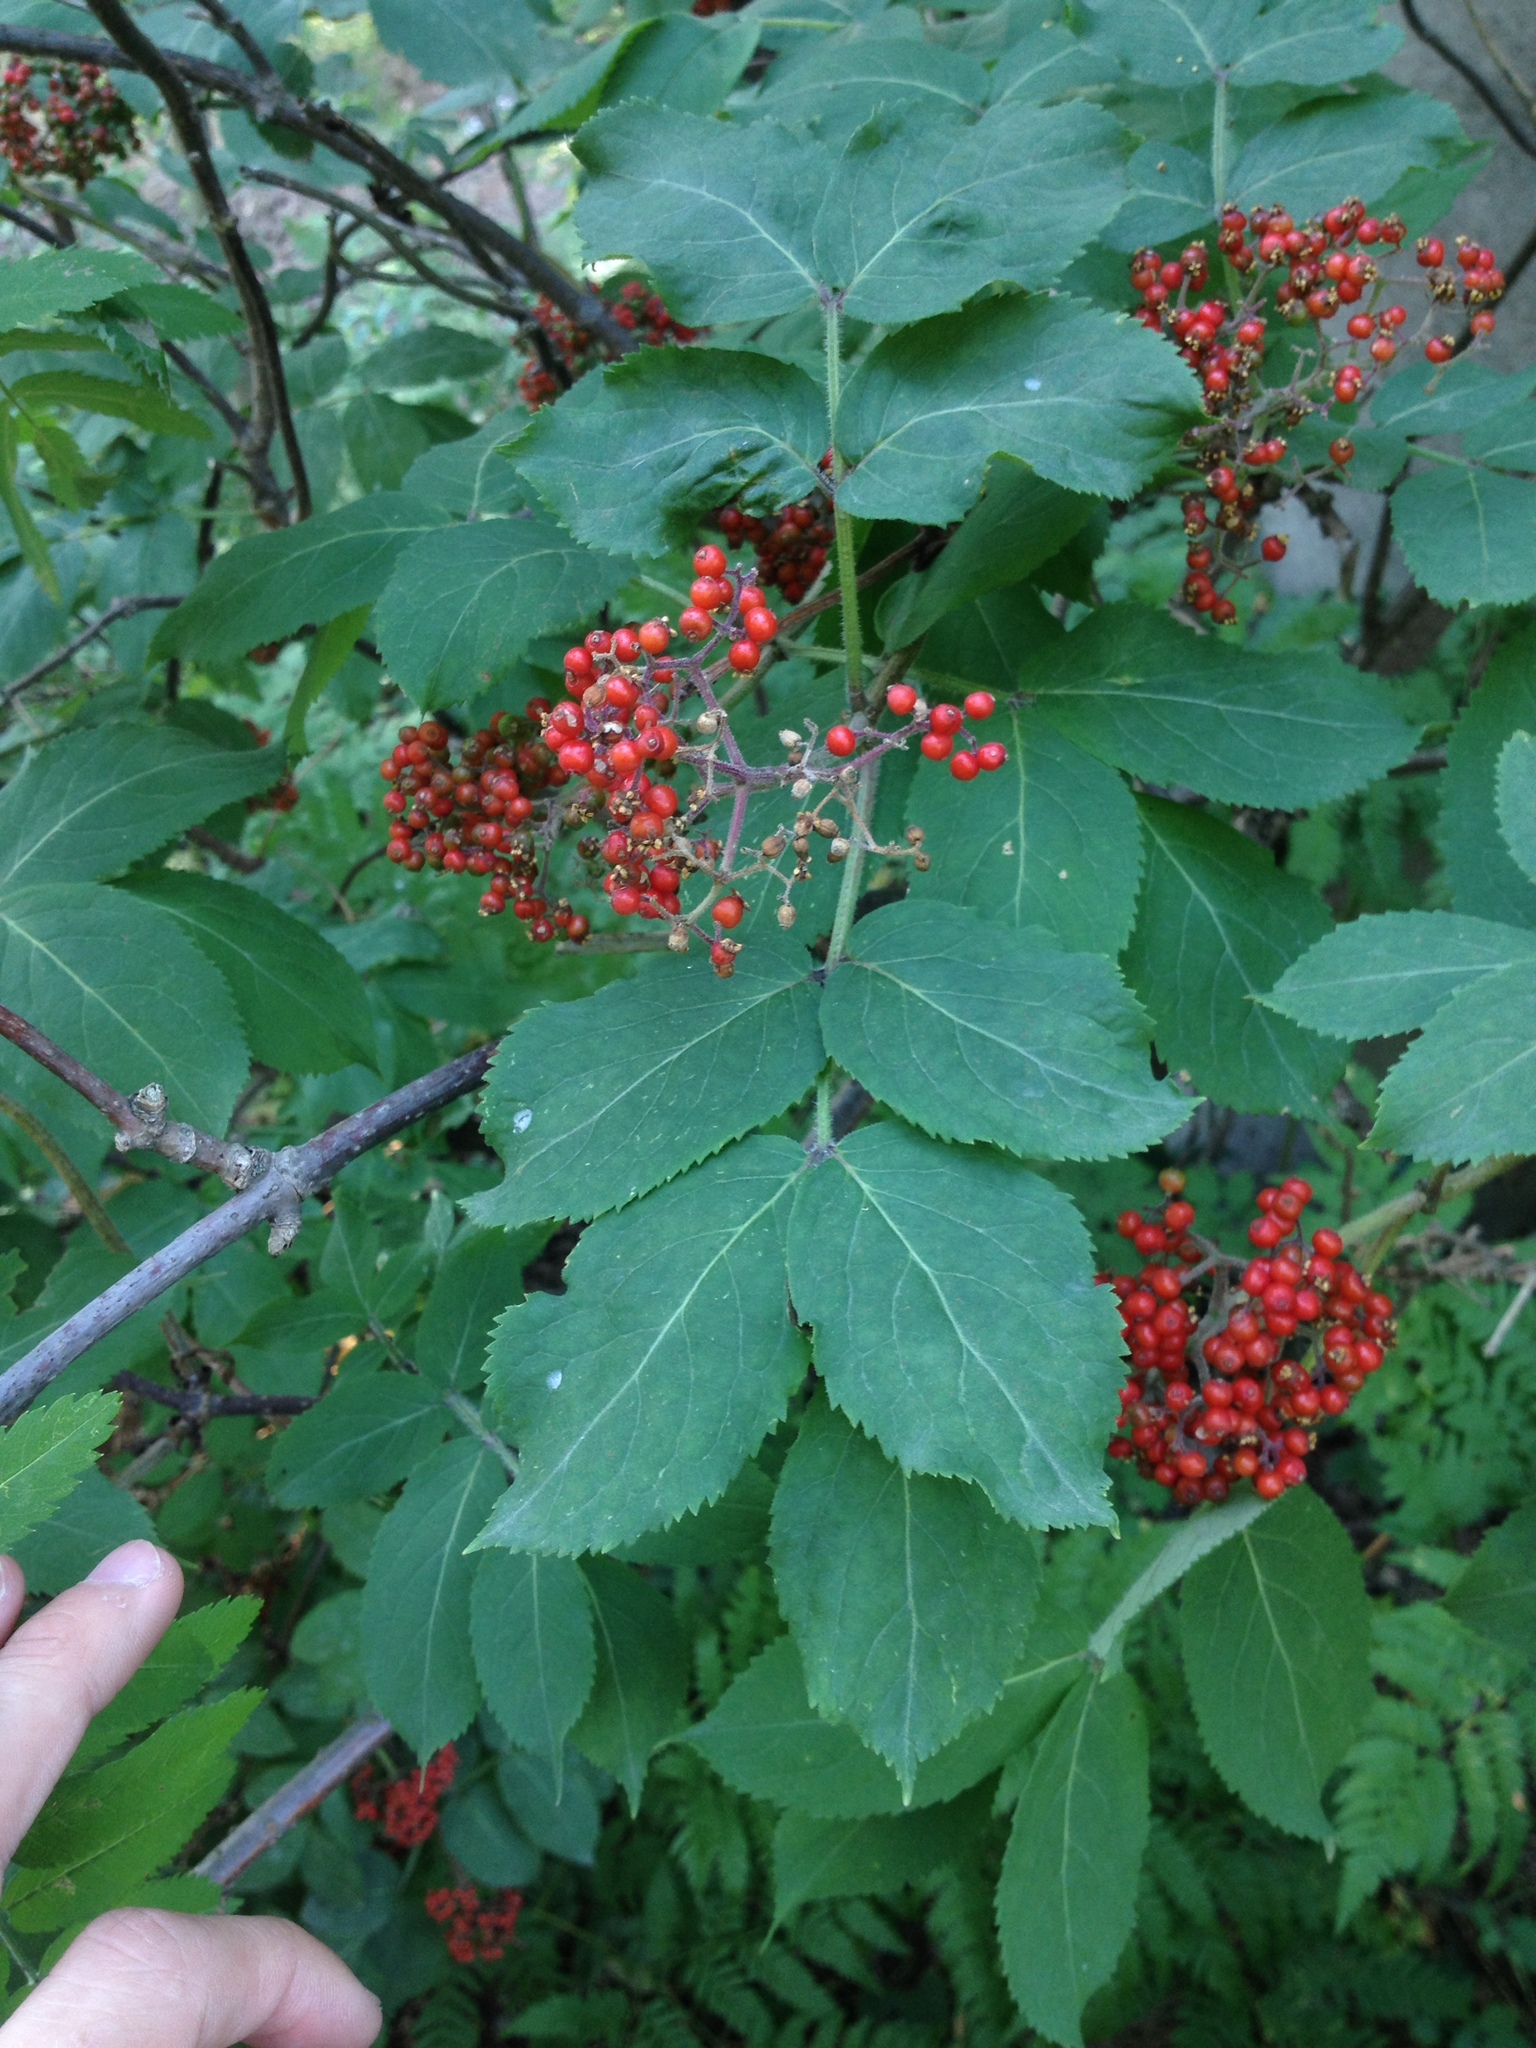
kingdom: Plantae
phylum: Tracheophyta
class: Magnoliopsida
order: Dipsacales
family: Viburnaceae
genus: Sambucus
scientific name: Sambucus racemosa
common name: Red-berried elder
